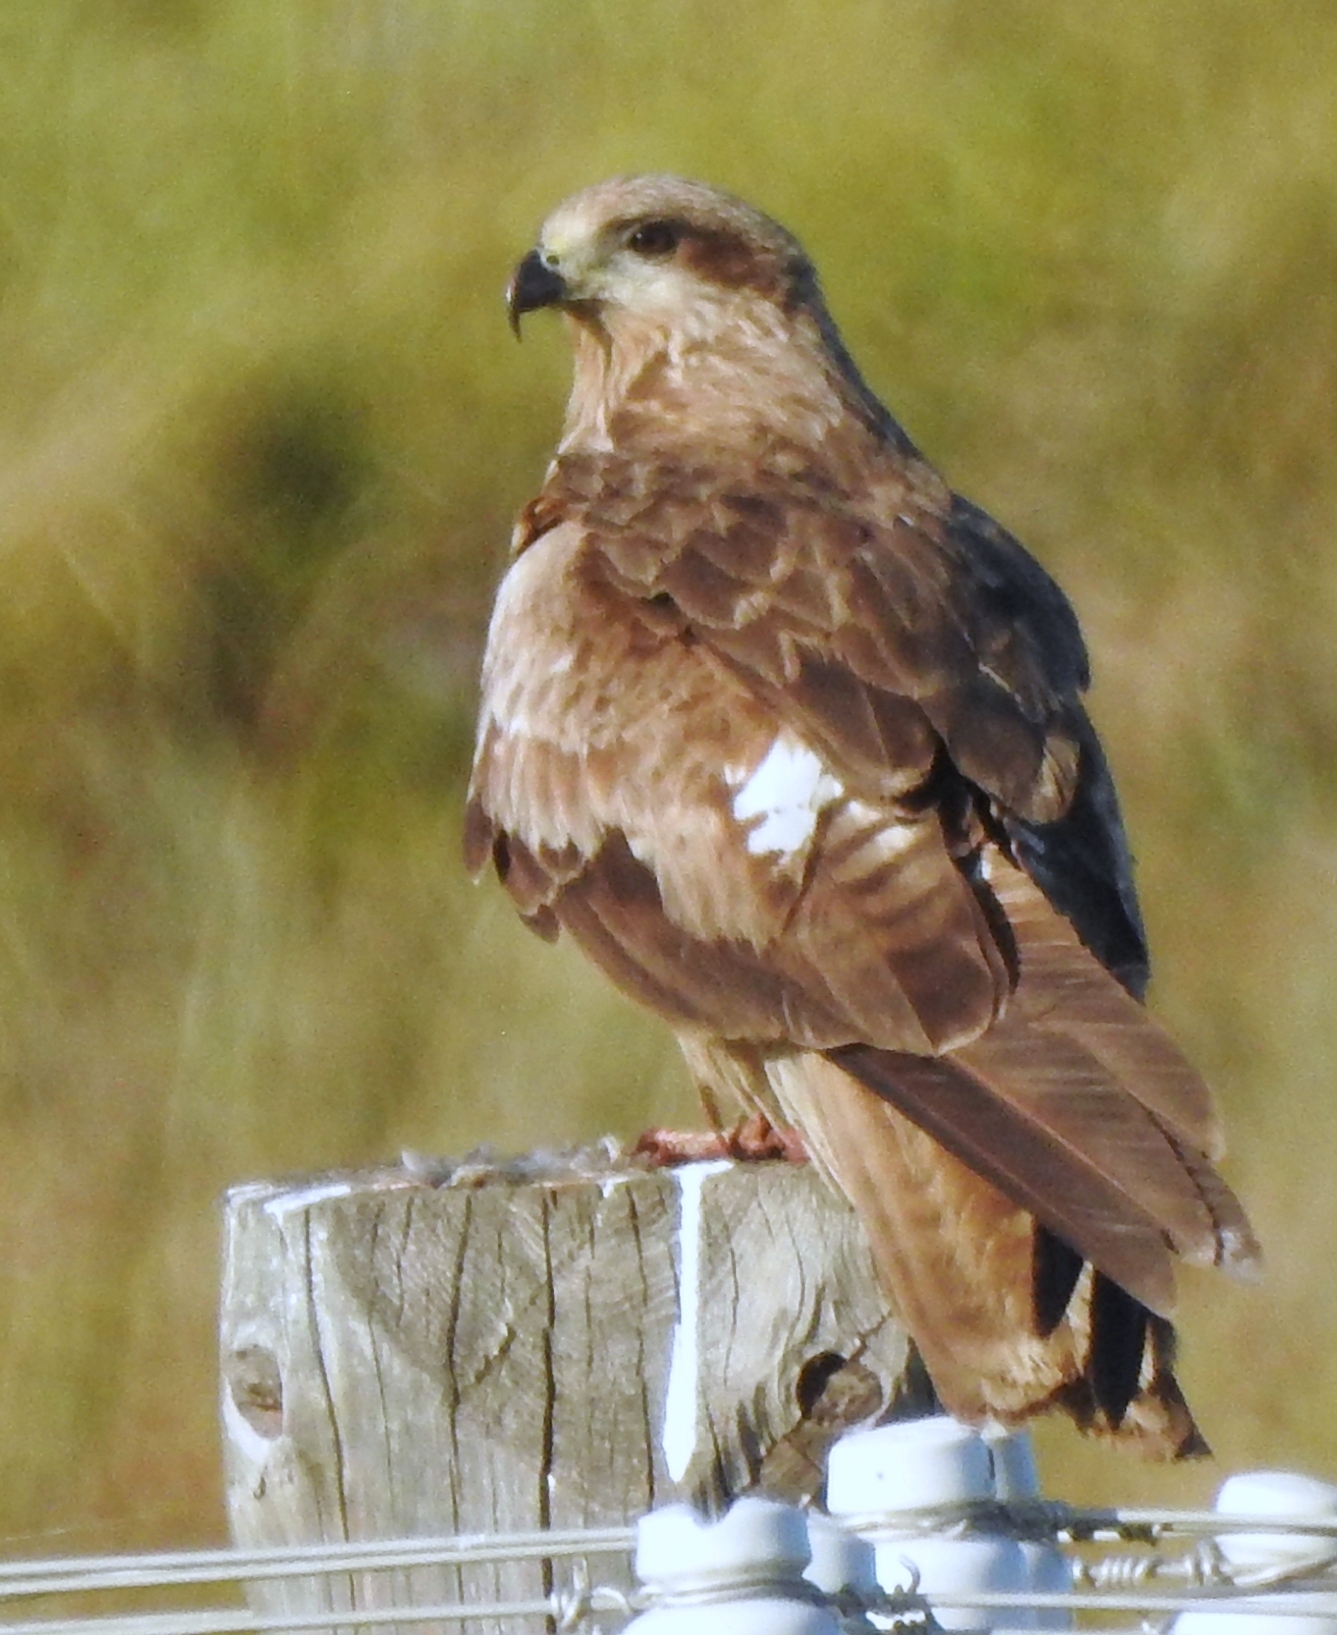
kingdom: Animalia
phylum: Chordata
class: Aves
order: Accipitriformes
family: Accipitridae
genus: Milvus
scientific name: Milvus migrans
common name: Black kite
